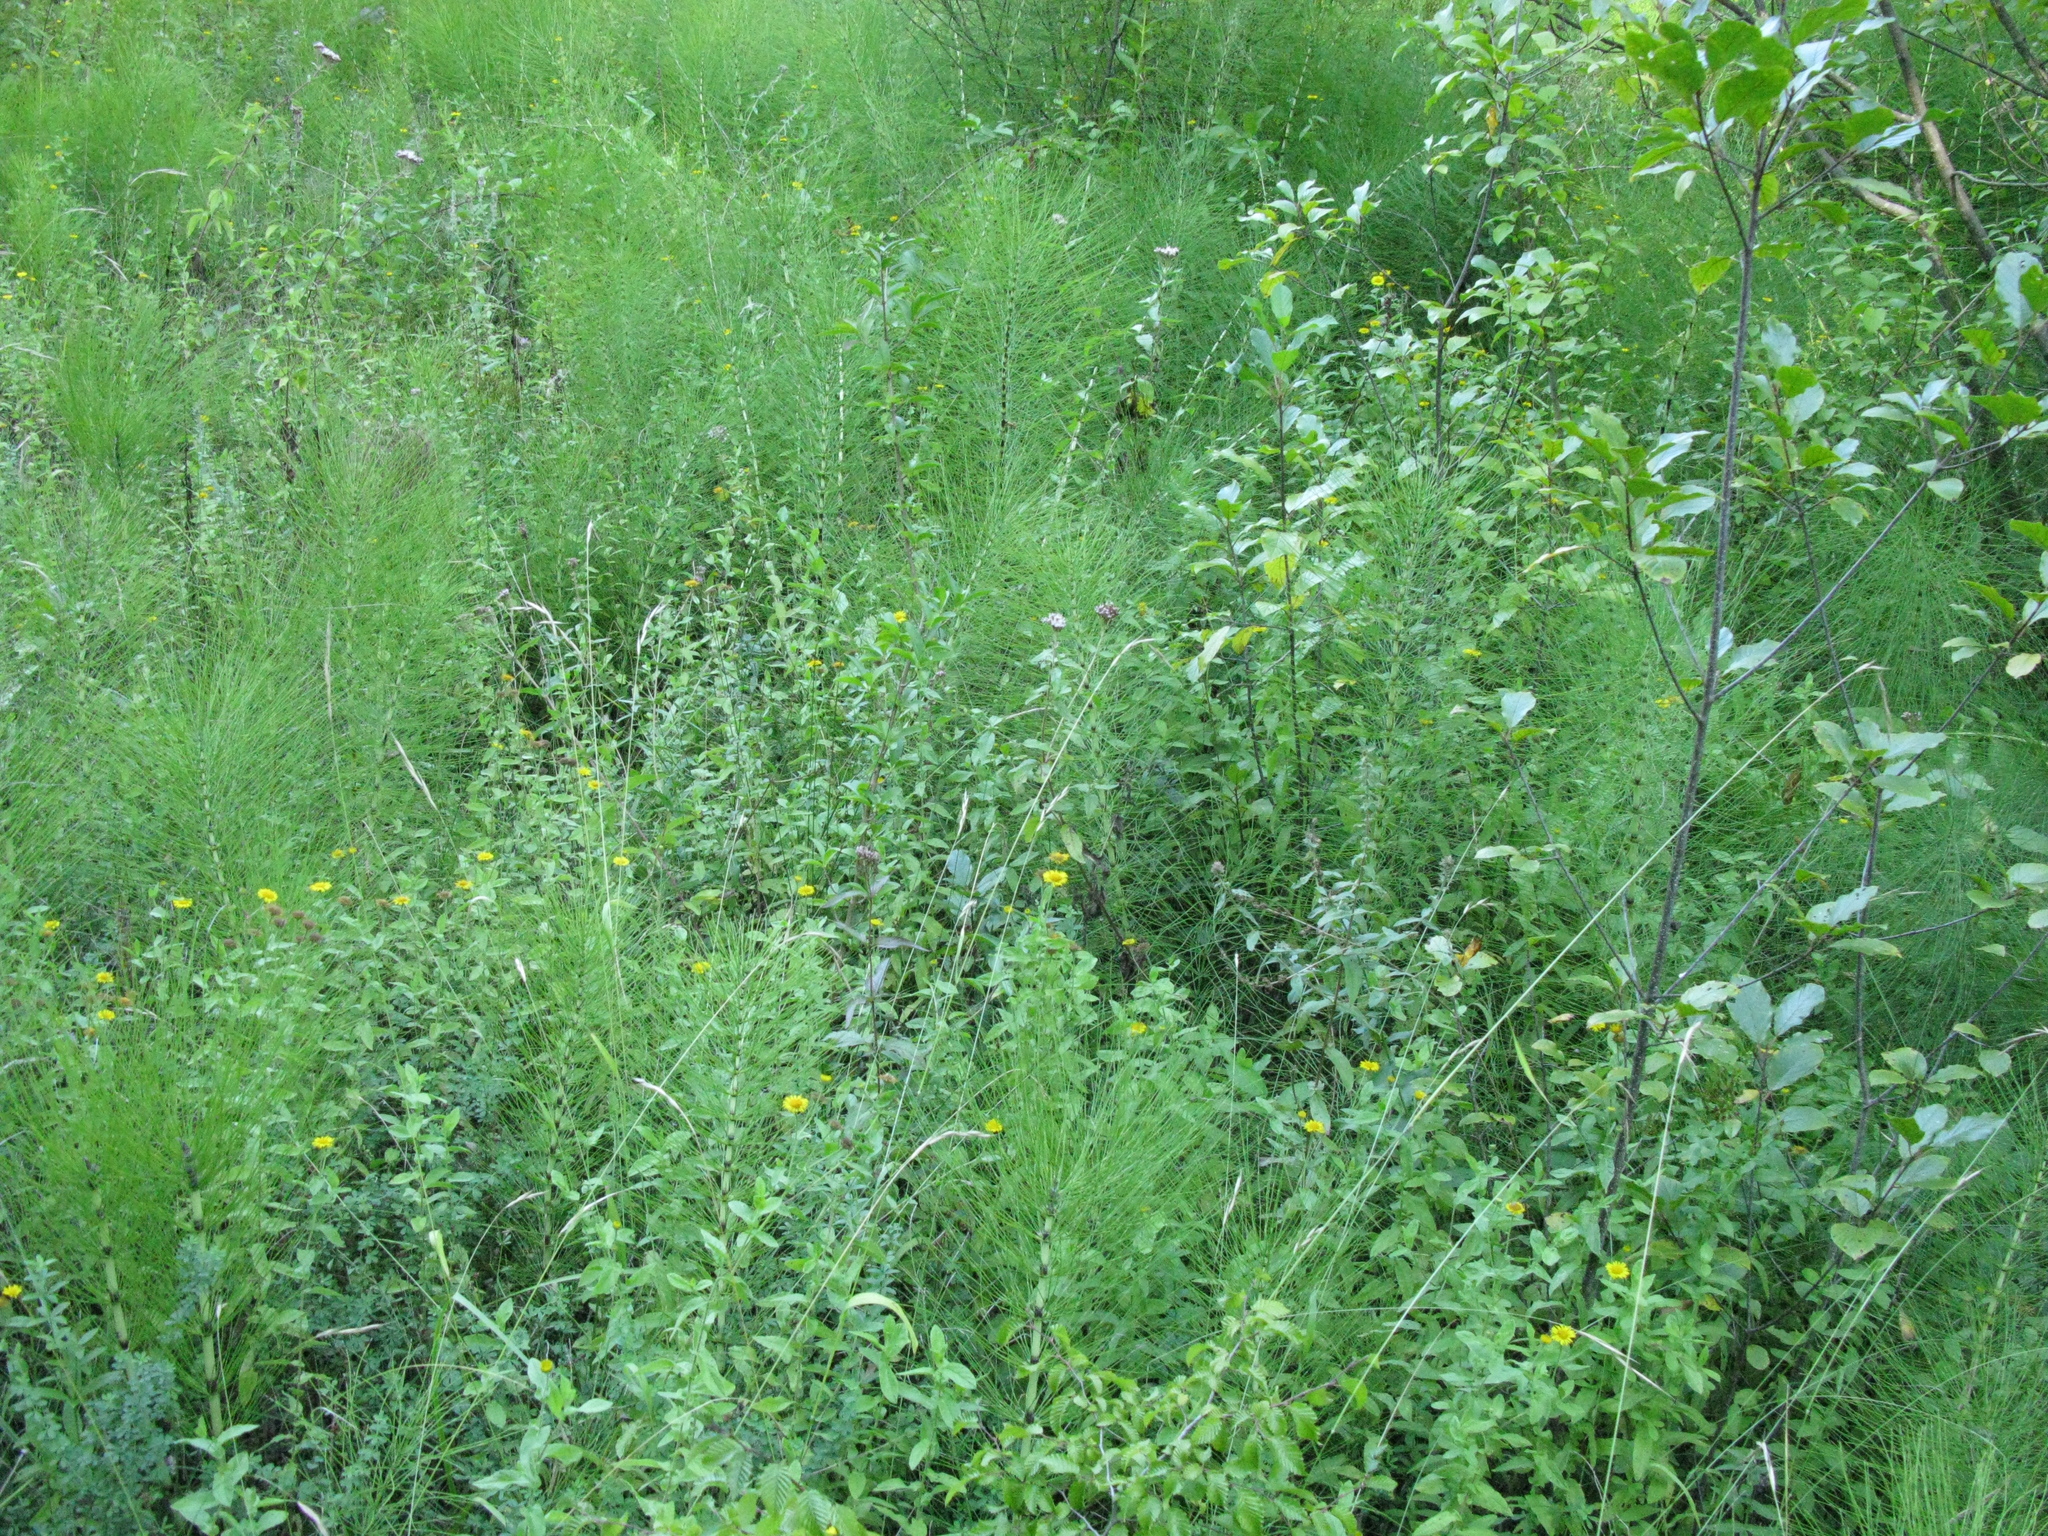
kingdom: Plantae
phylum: Tracheophyta
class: Magnoliopsida
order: Asterales
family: Asteraceae
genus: Pulicaria
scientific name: Pulicaria dysenterica
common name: Common fleabane
